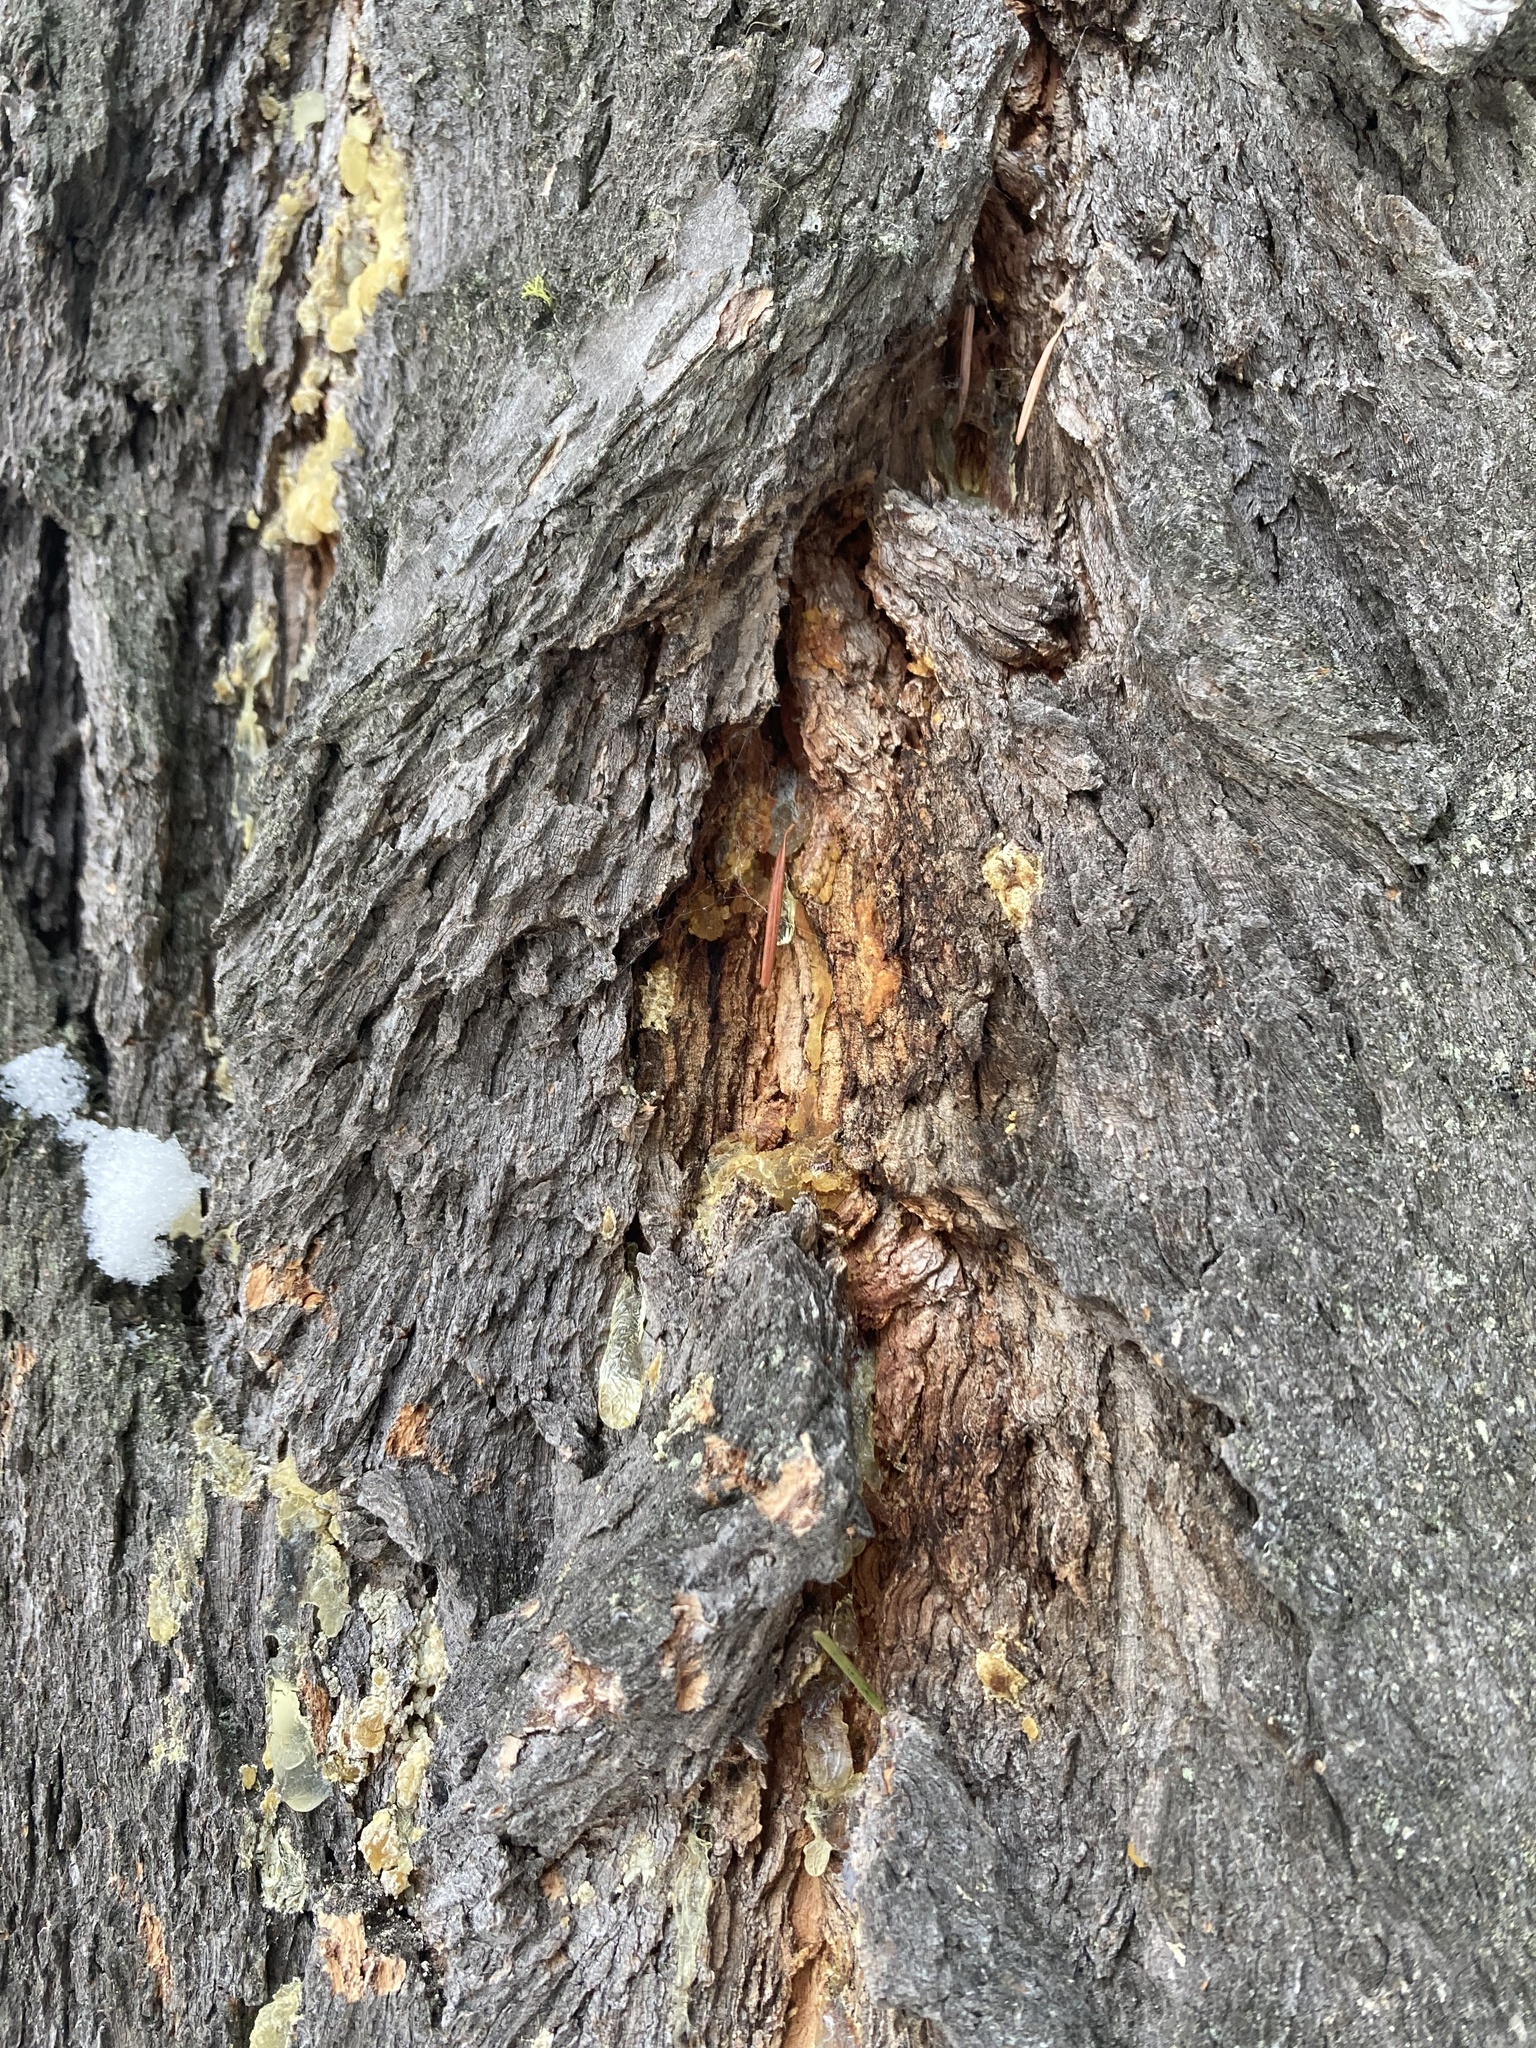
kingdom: Plantae
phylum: Tracheophyta
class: Pinopsida
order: Pinales
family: Pinaceae
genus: Pseudotsuga
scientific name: Pseudotsuga menziesii
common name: Douglas fir
